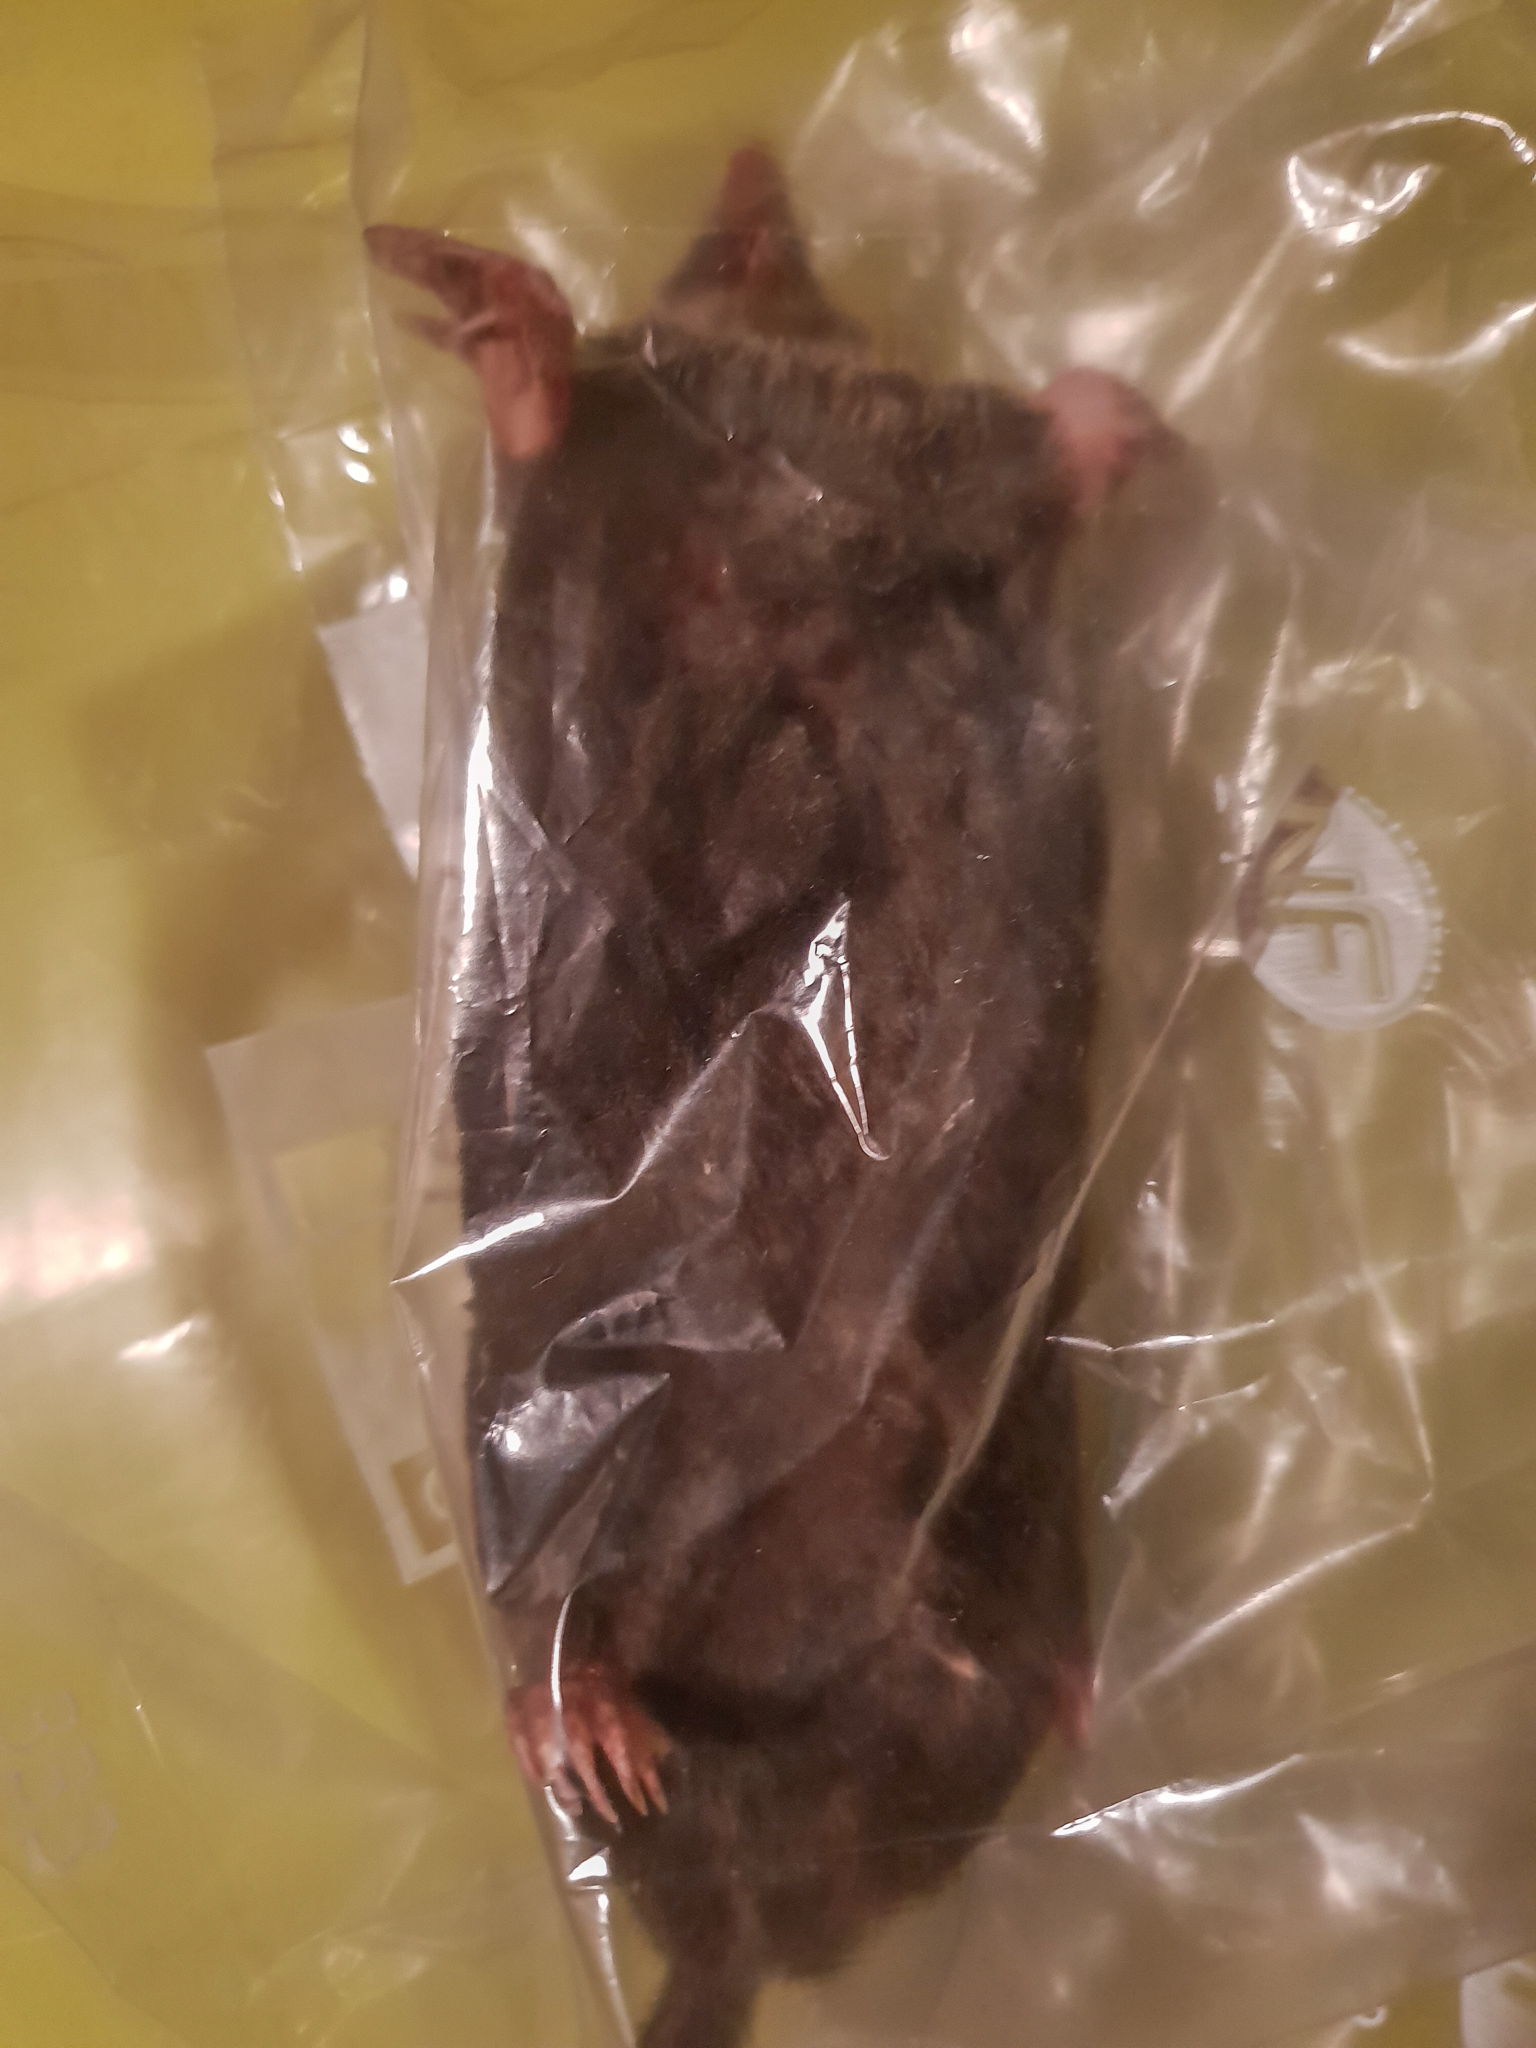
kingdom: Animalia
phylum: Chordata
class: Mammalia
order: Soricomorpha
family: Talpidae
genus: Talpa
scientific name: Talpa europaea
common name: European mole
